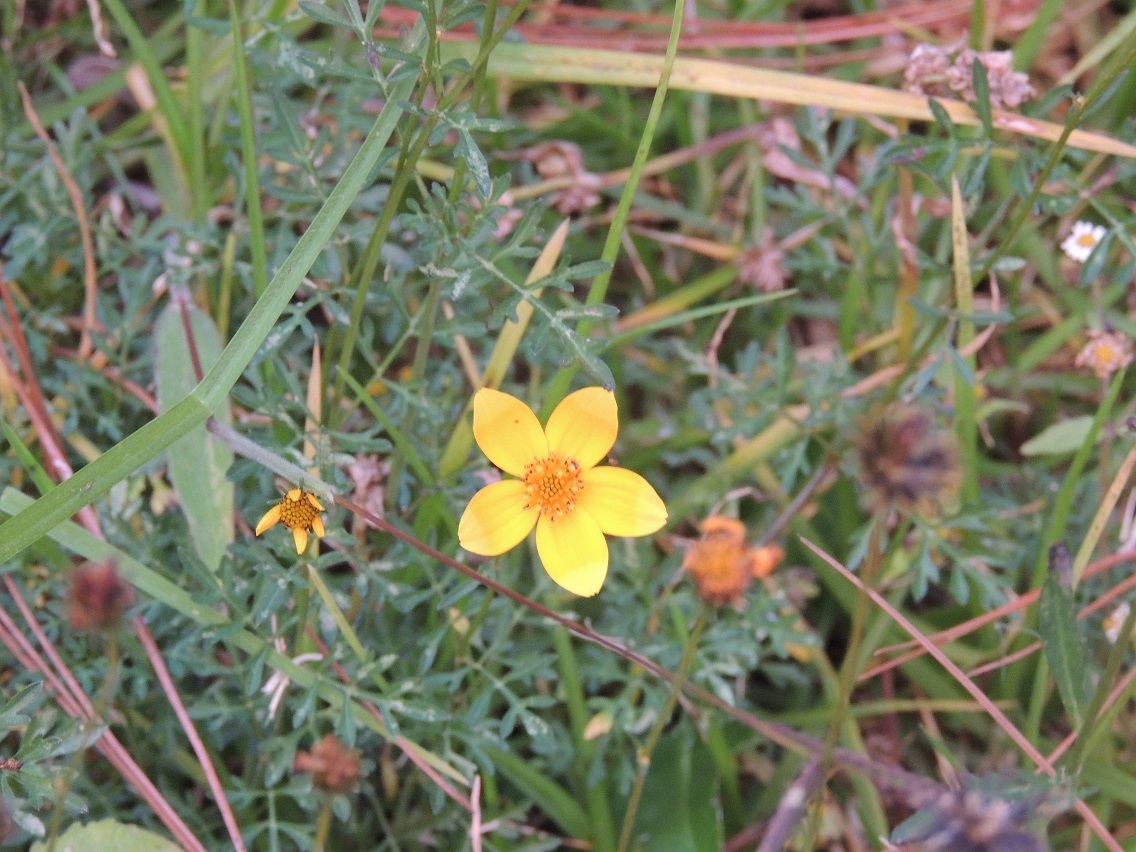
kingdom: Plantae
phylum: Tracheophyta
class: Magnoliopsida
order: Asterales
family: Asteraceae
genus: Bidens
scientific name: Bidens triplinervia
